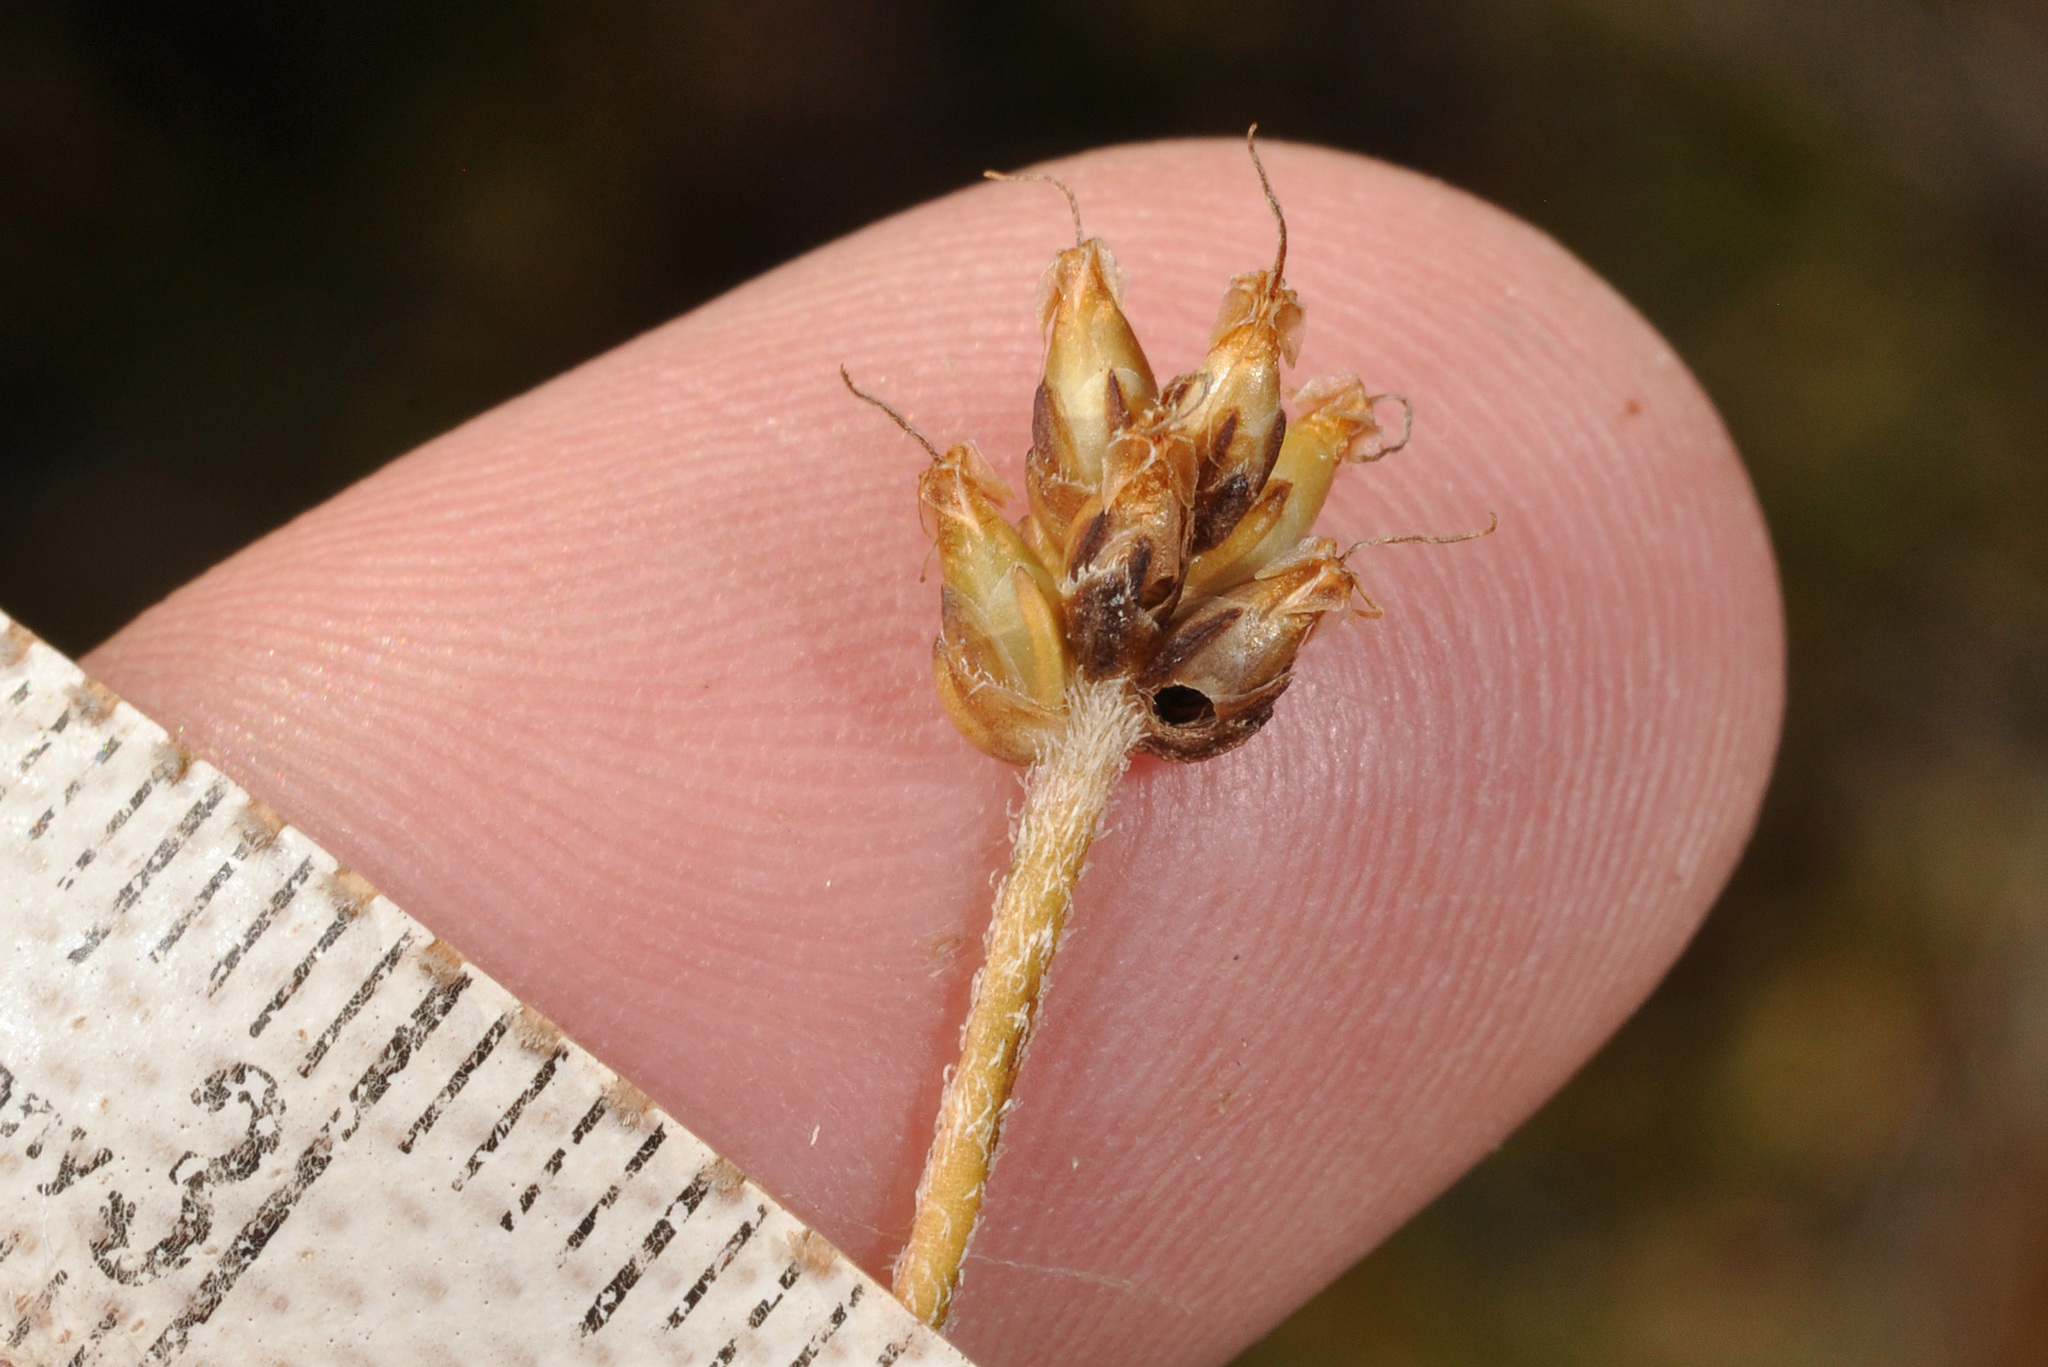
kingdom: Plantae
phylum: Tracheophyta
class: Magnoliopsida
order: Lamiales
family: Plantaginaceae
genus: Plantago
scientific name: Plantago udicola
